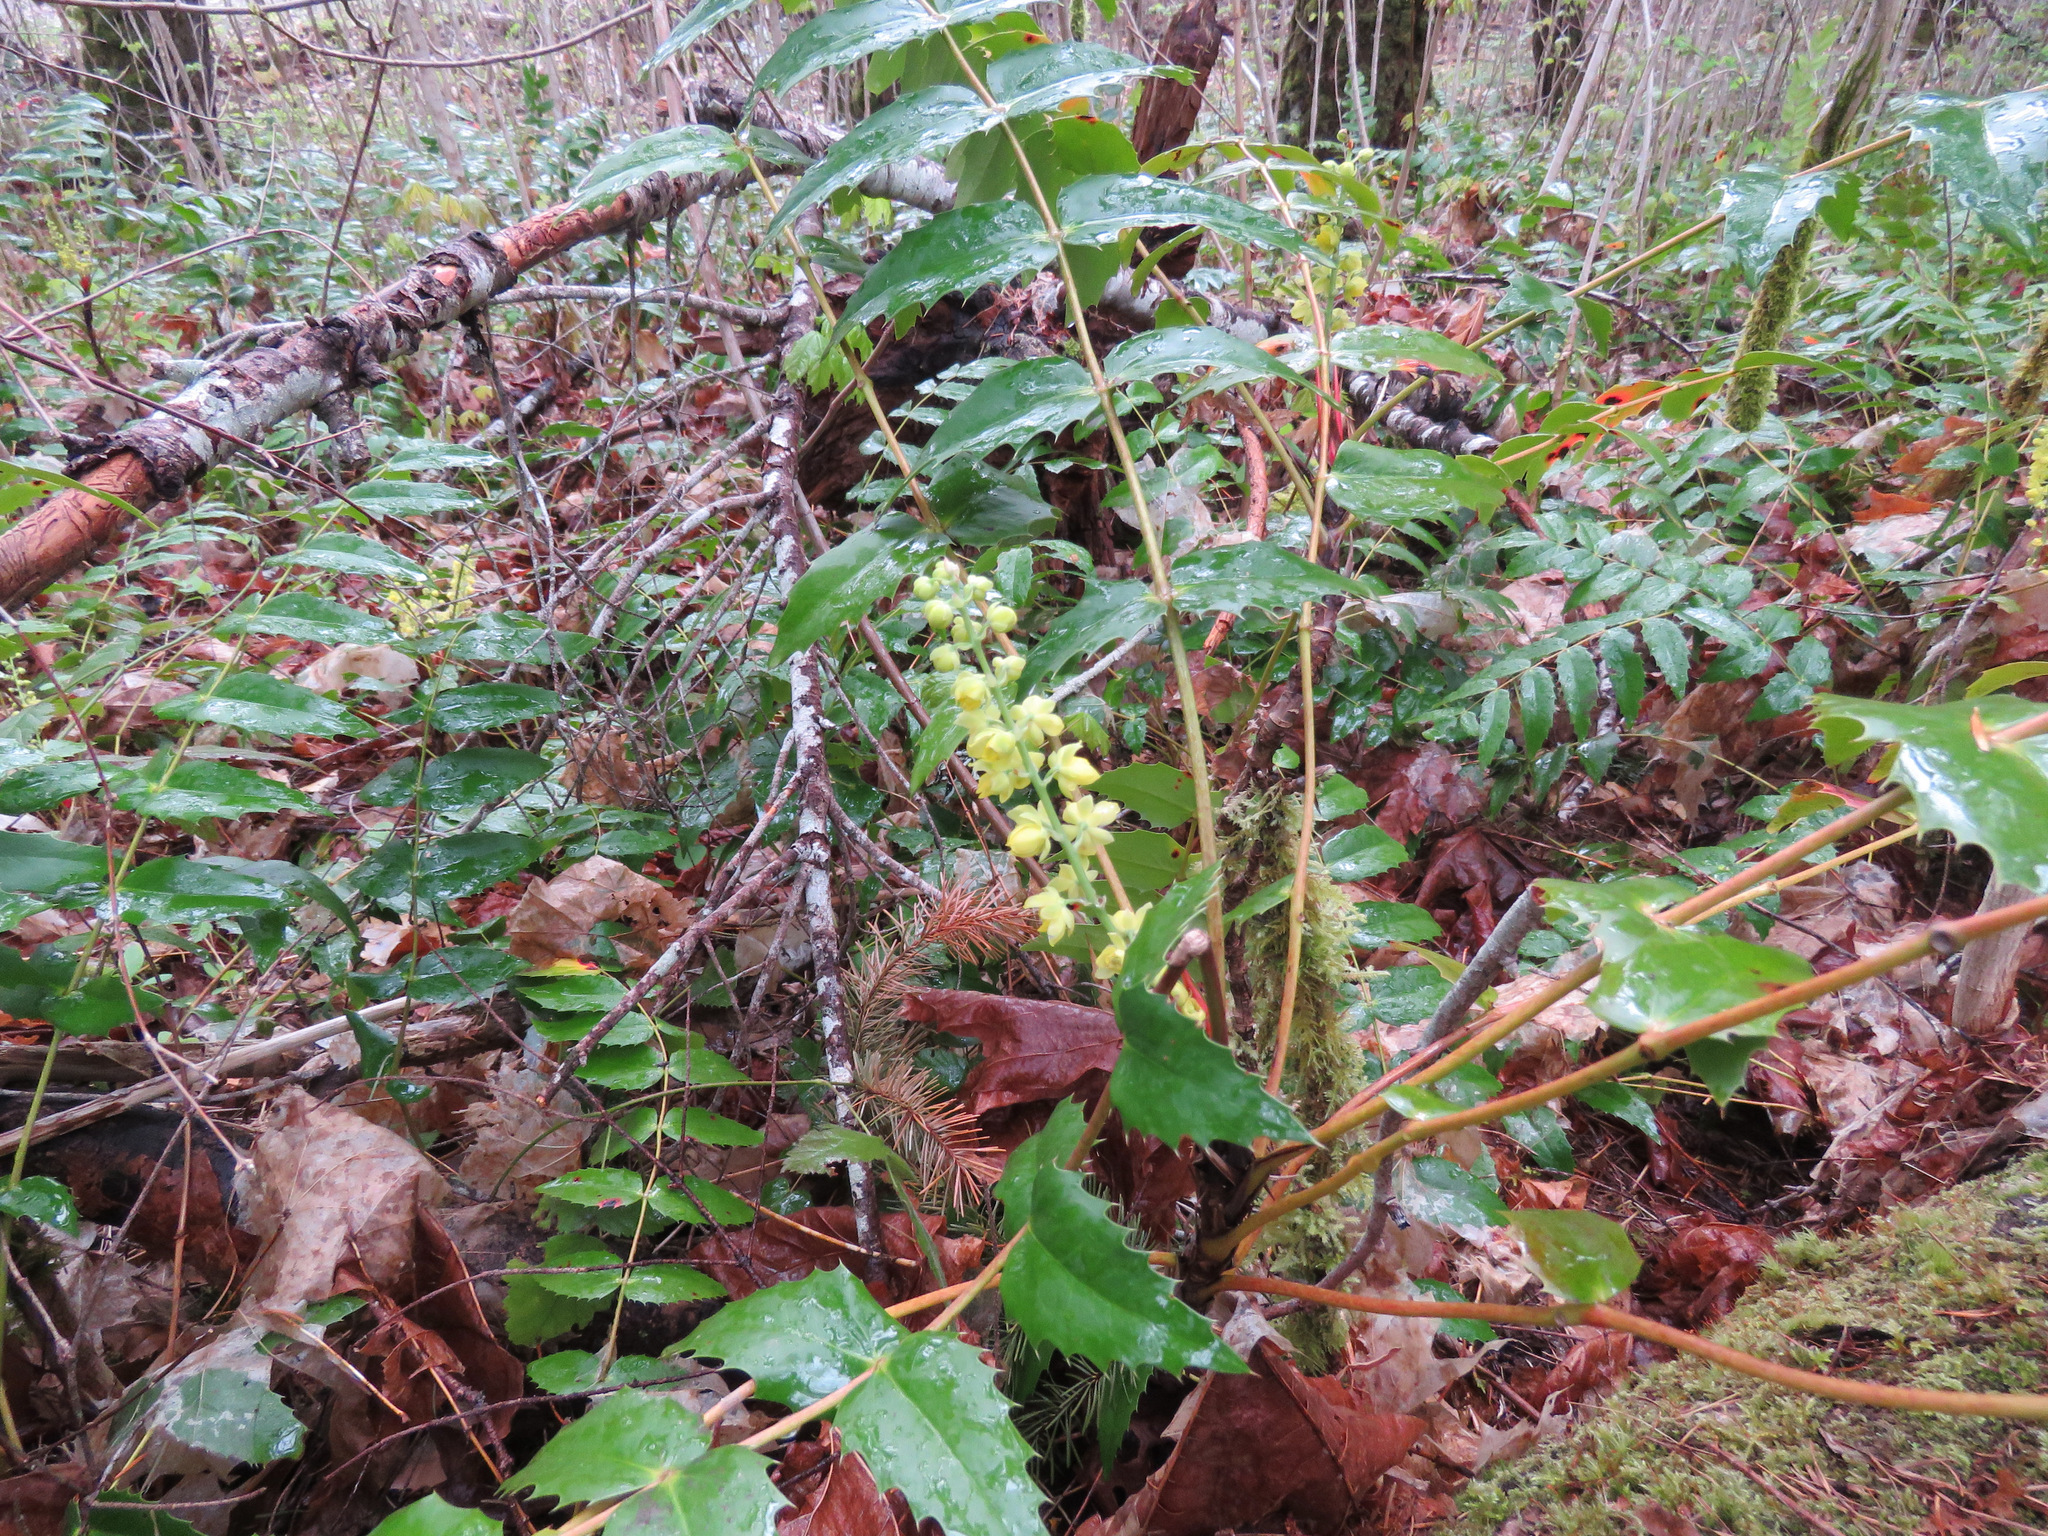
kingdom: Plantae
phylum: Tracheophyta
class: Magnoliopsida
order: Ranunculales
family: Berberidaceae
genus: Mahonia
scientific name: Mahonia nervosa
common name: Cascade oregon-grape
